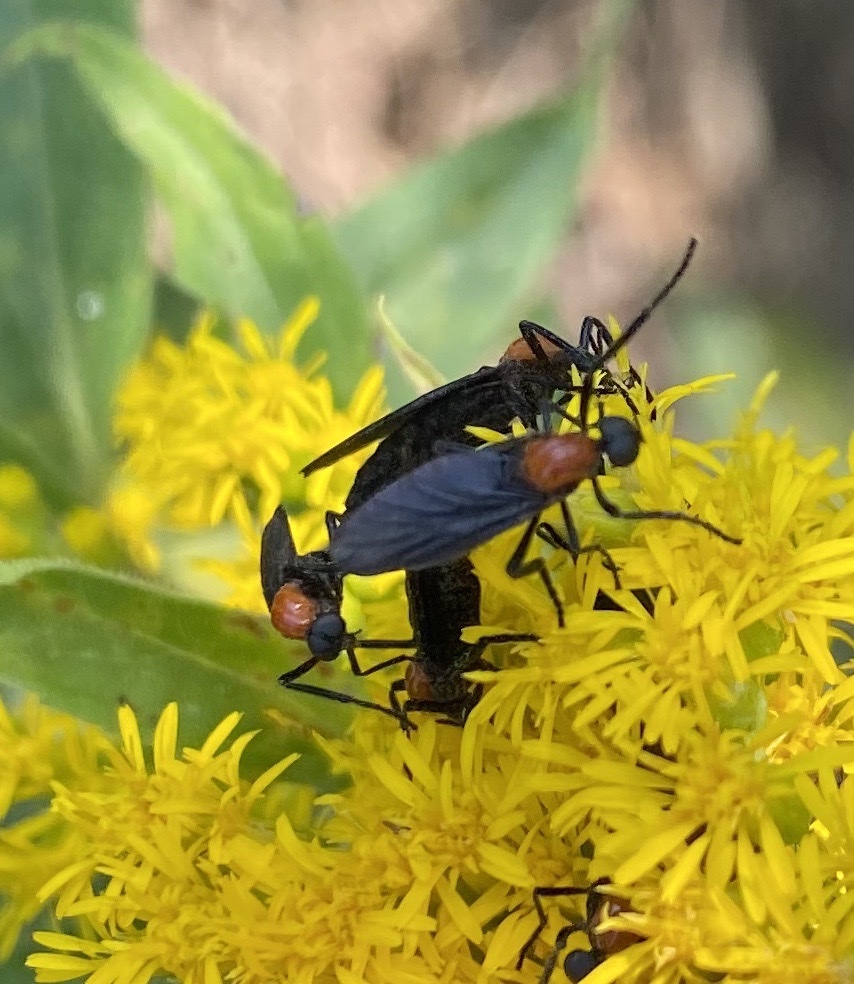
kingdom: Animalia
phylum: Arthropoda
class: Insecta
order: Diptera
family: Bibionidae
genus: Plecia
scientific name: Plecia nearctica
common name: March fly
